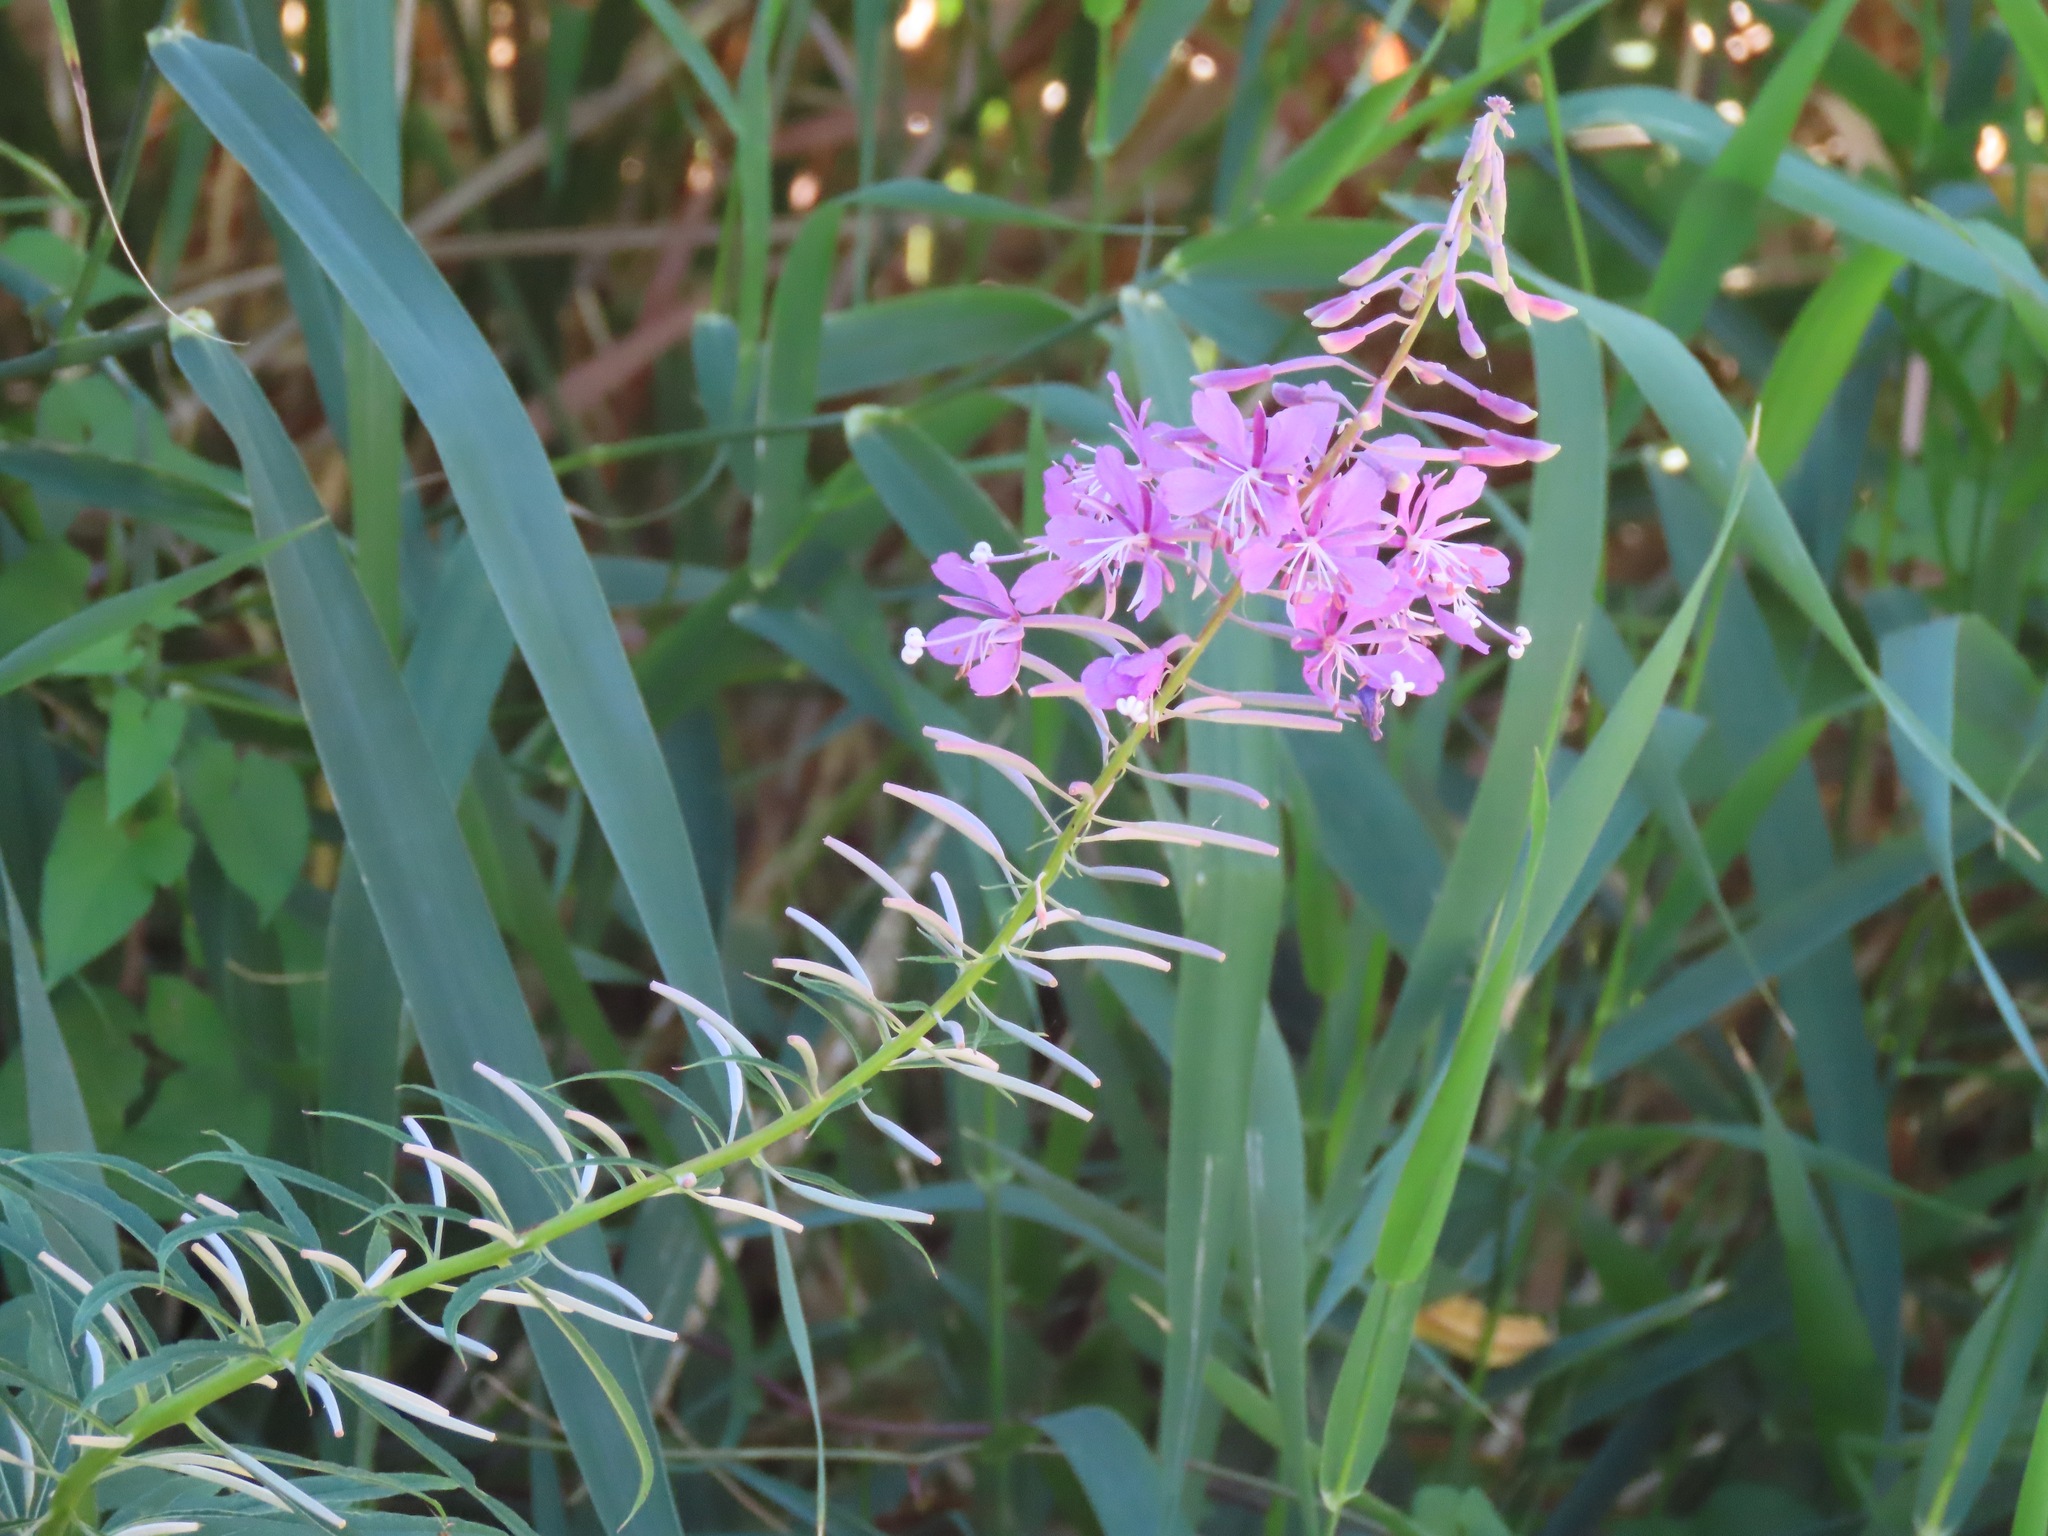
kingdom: Plantae
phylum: Tracheophyta
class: Magnoliopsida
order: Myrtales
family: Onagraceae
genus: Chamaenerion
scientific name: Chamaenerion angustifolium
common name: Fireweed
